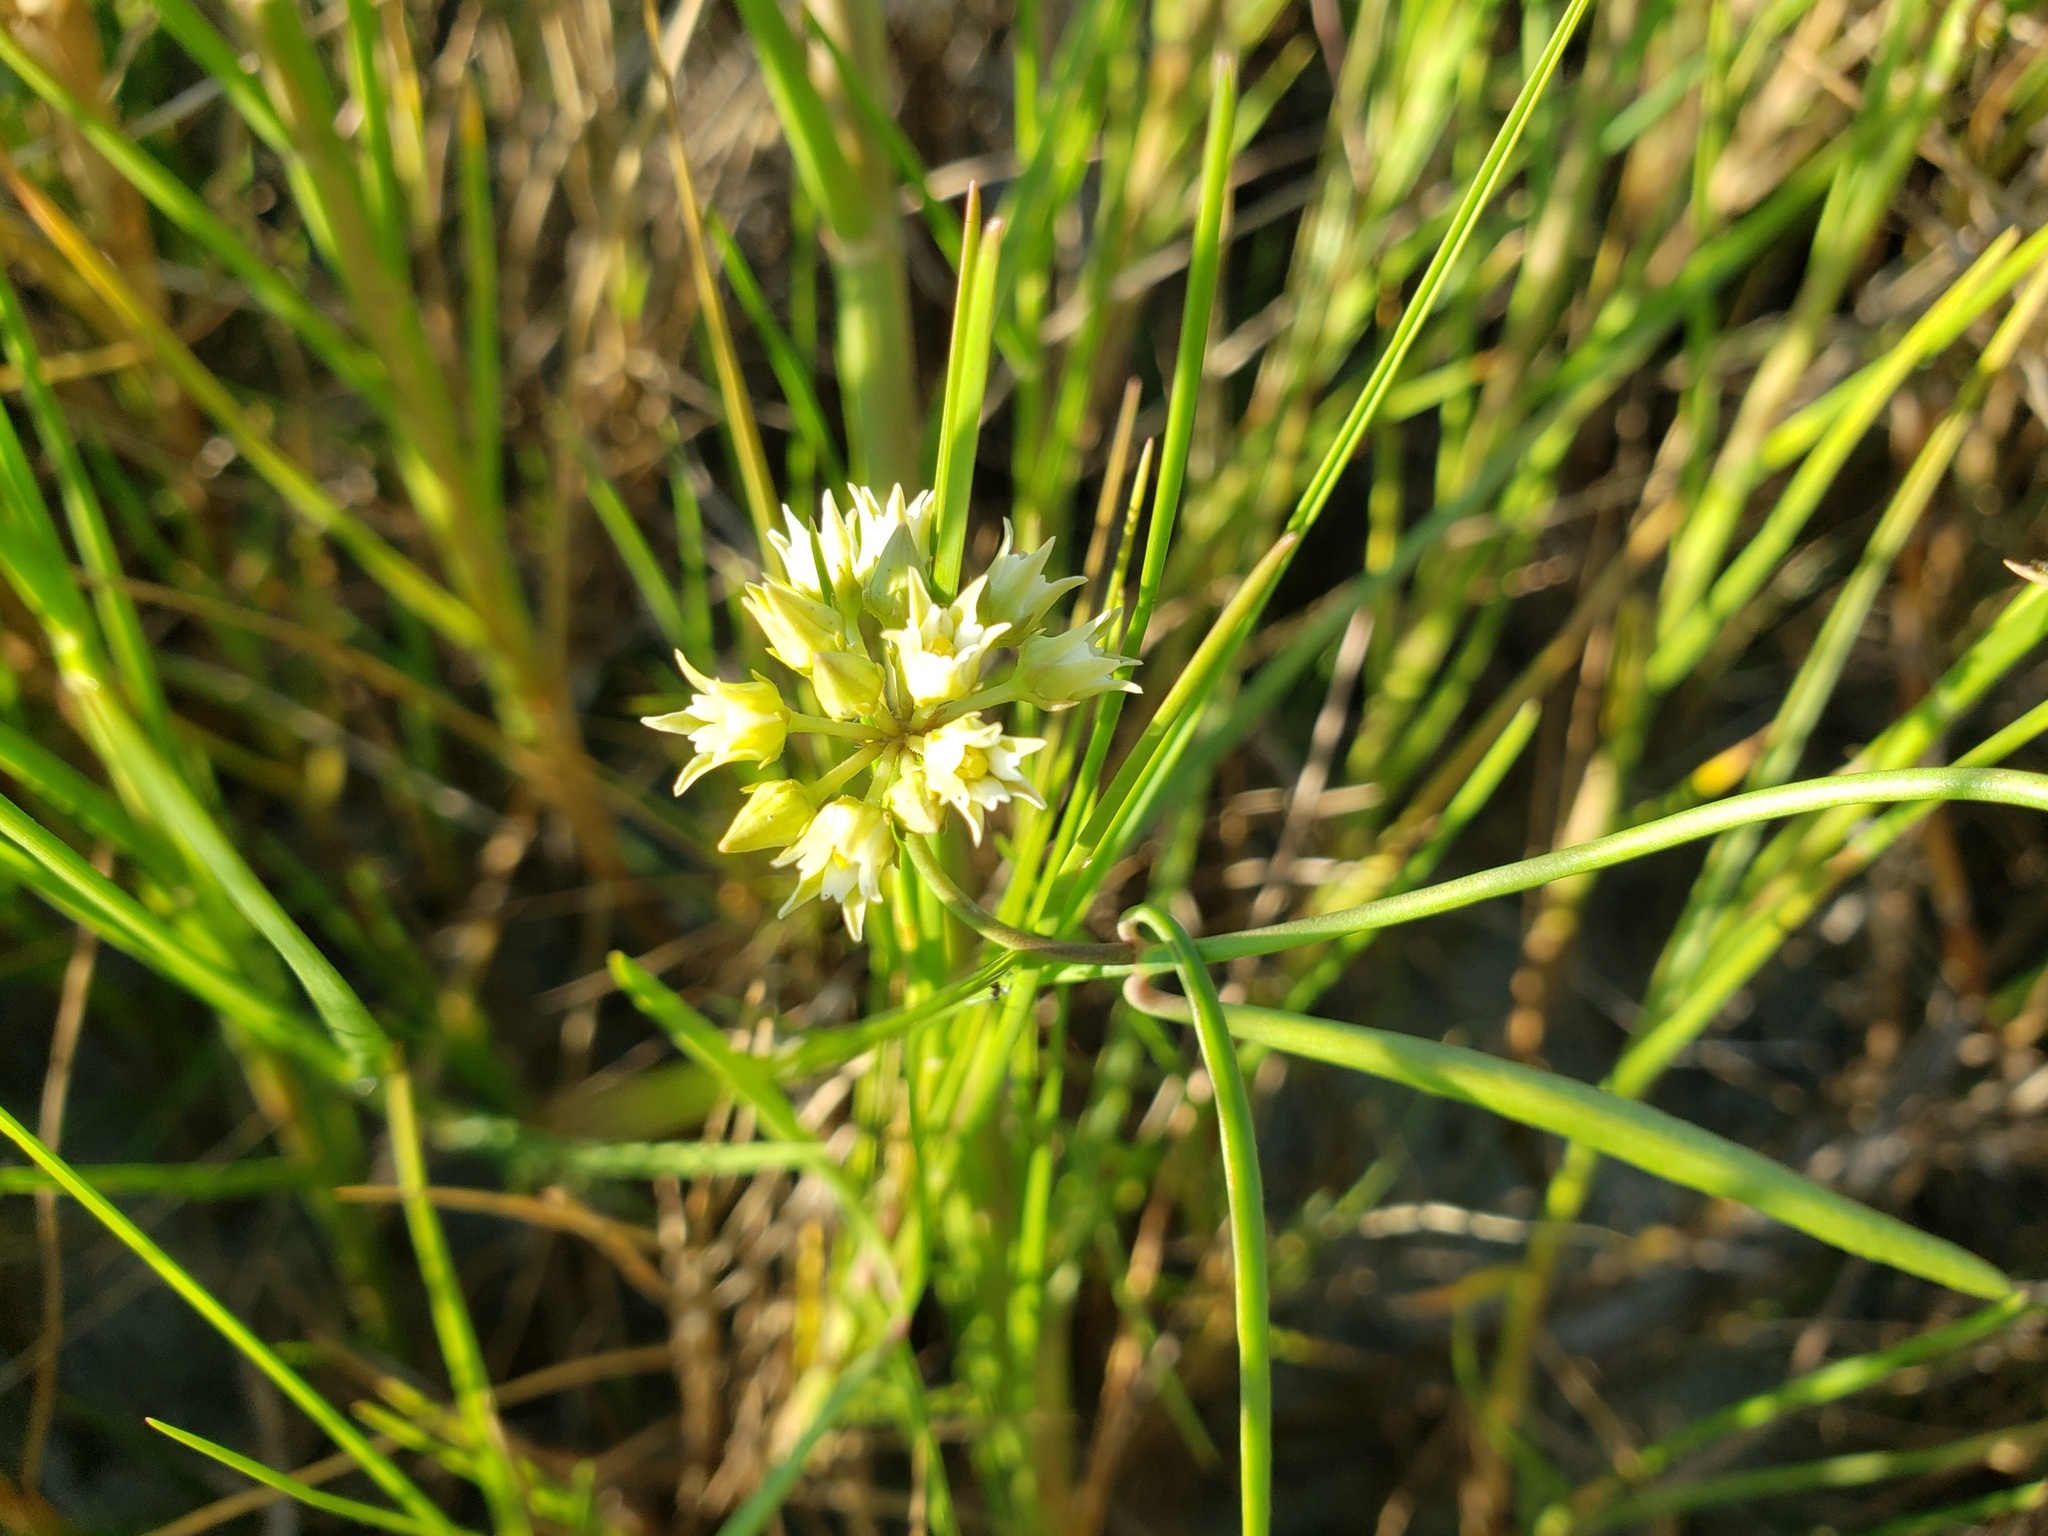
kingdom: Plantae
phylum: Tracheophyta
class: Magnoliopsida
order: Gentianales
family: Apocynaceae
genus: Pattalias
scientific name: Pattalias
